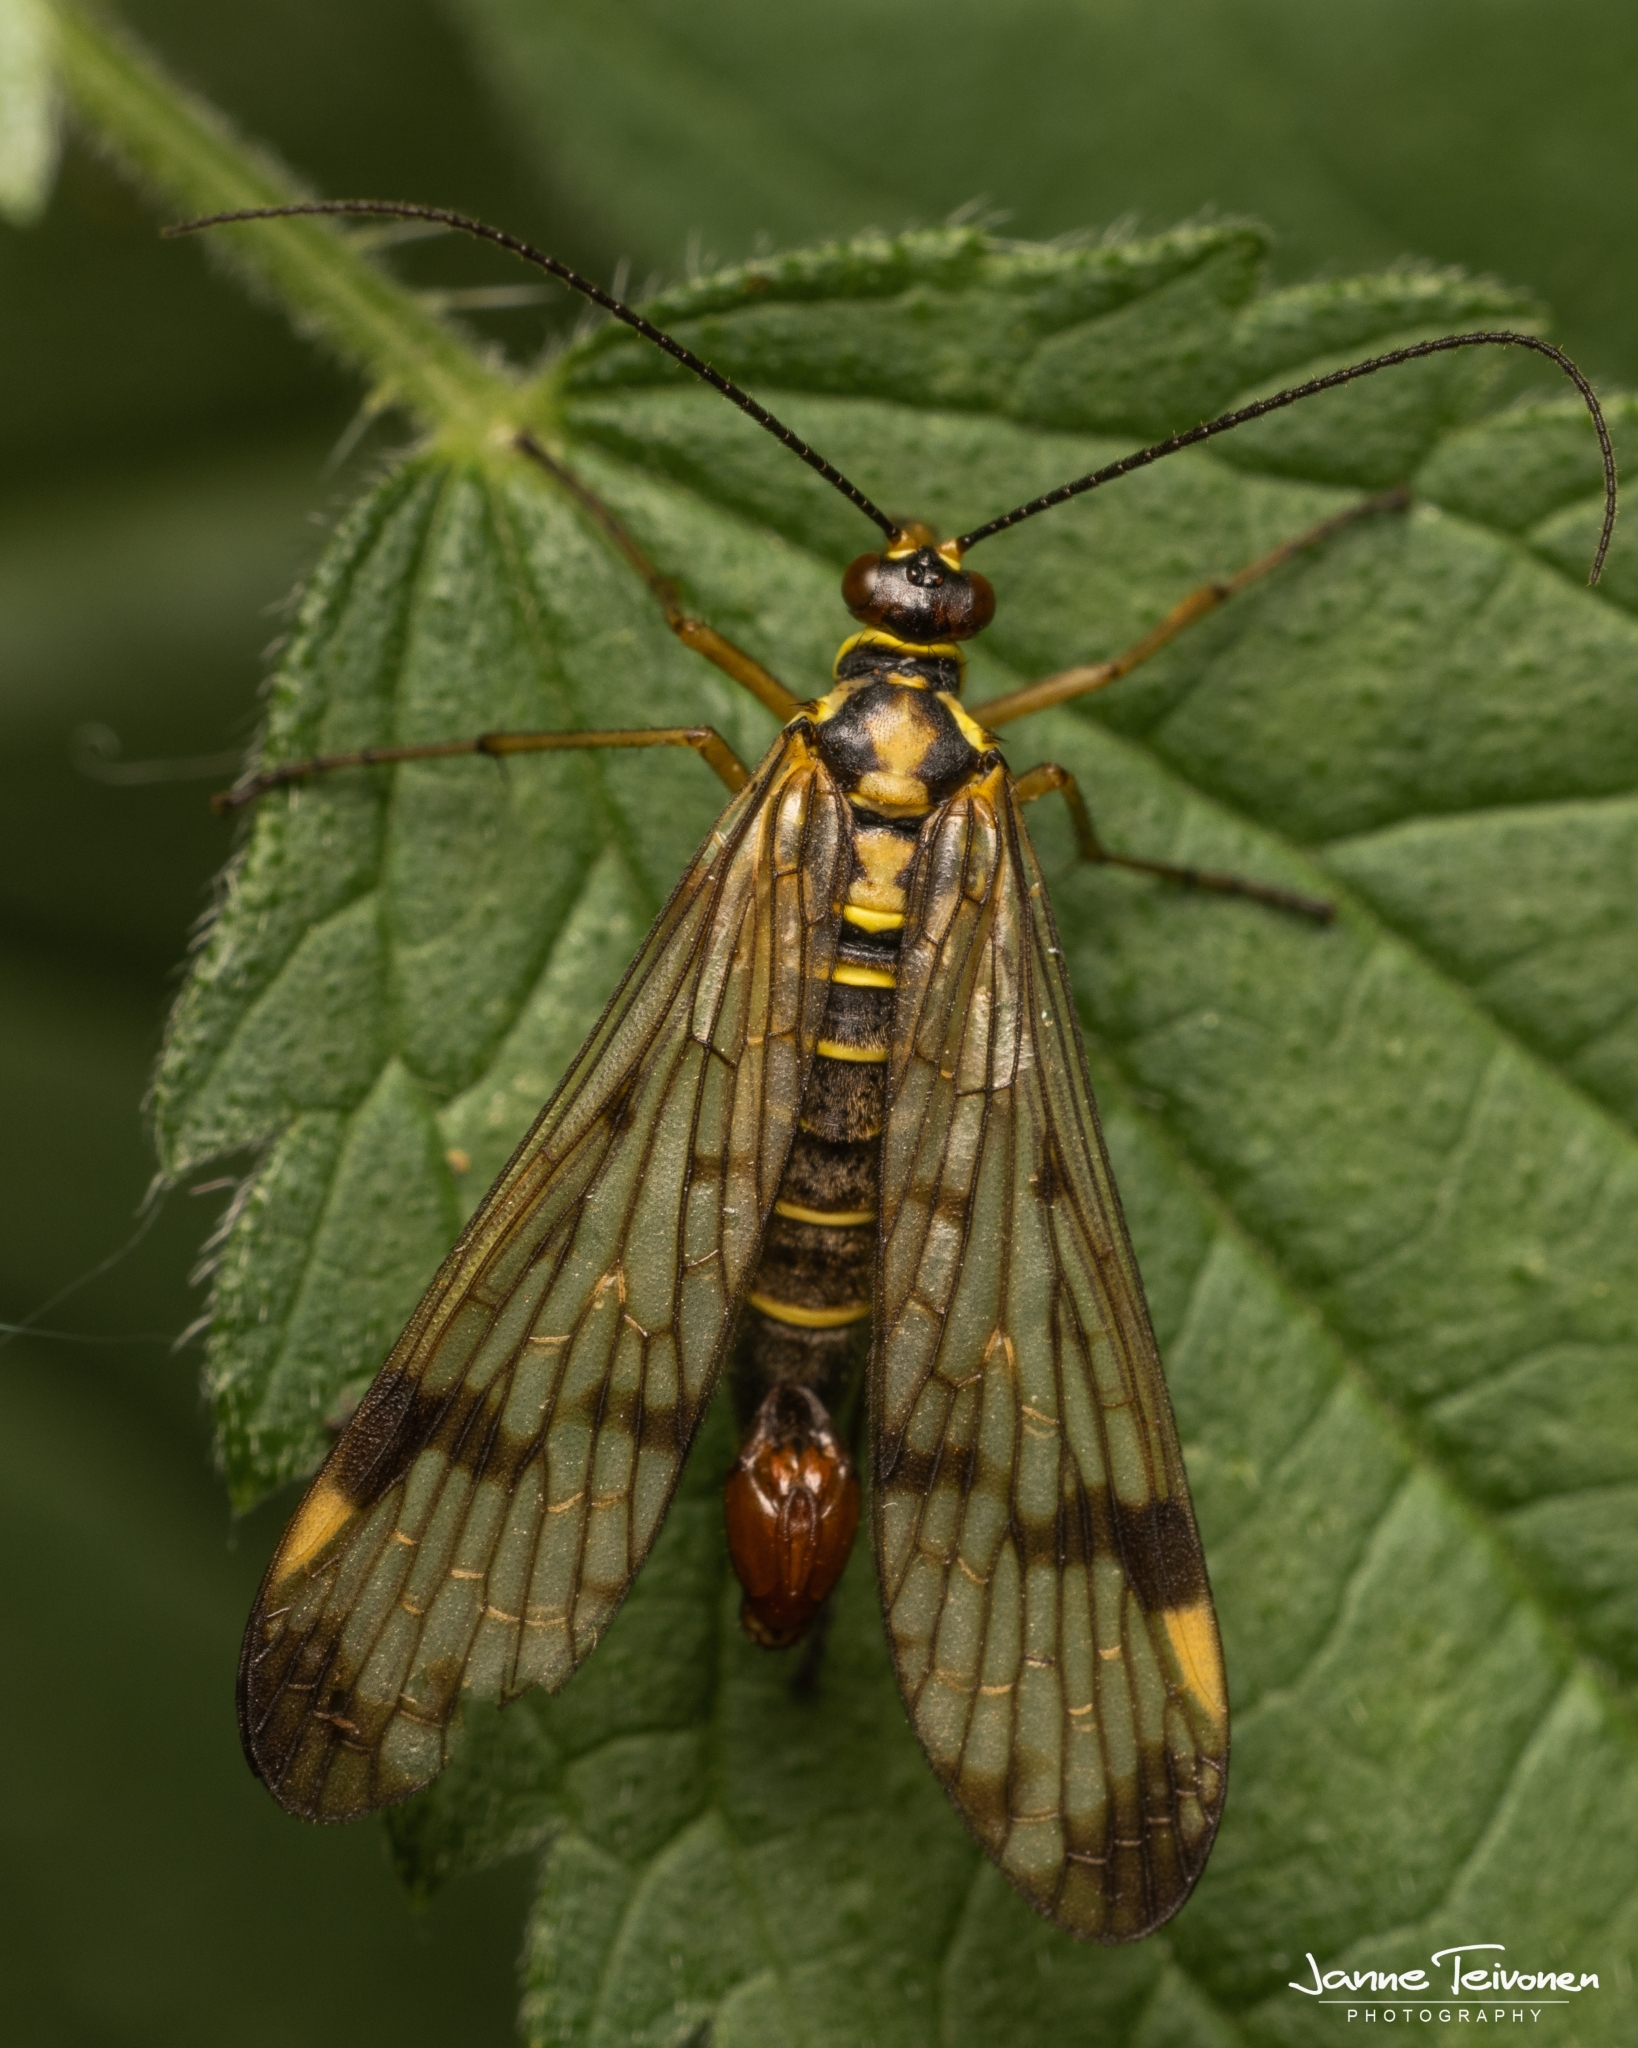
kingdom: Animalia
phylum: Arthropoda
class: Insecta
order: Mecoptera
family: Panorpidae
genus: Panorpa
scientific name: Panorpa communis
